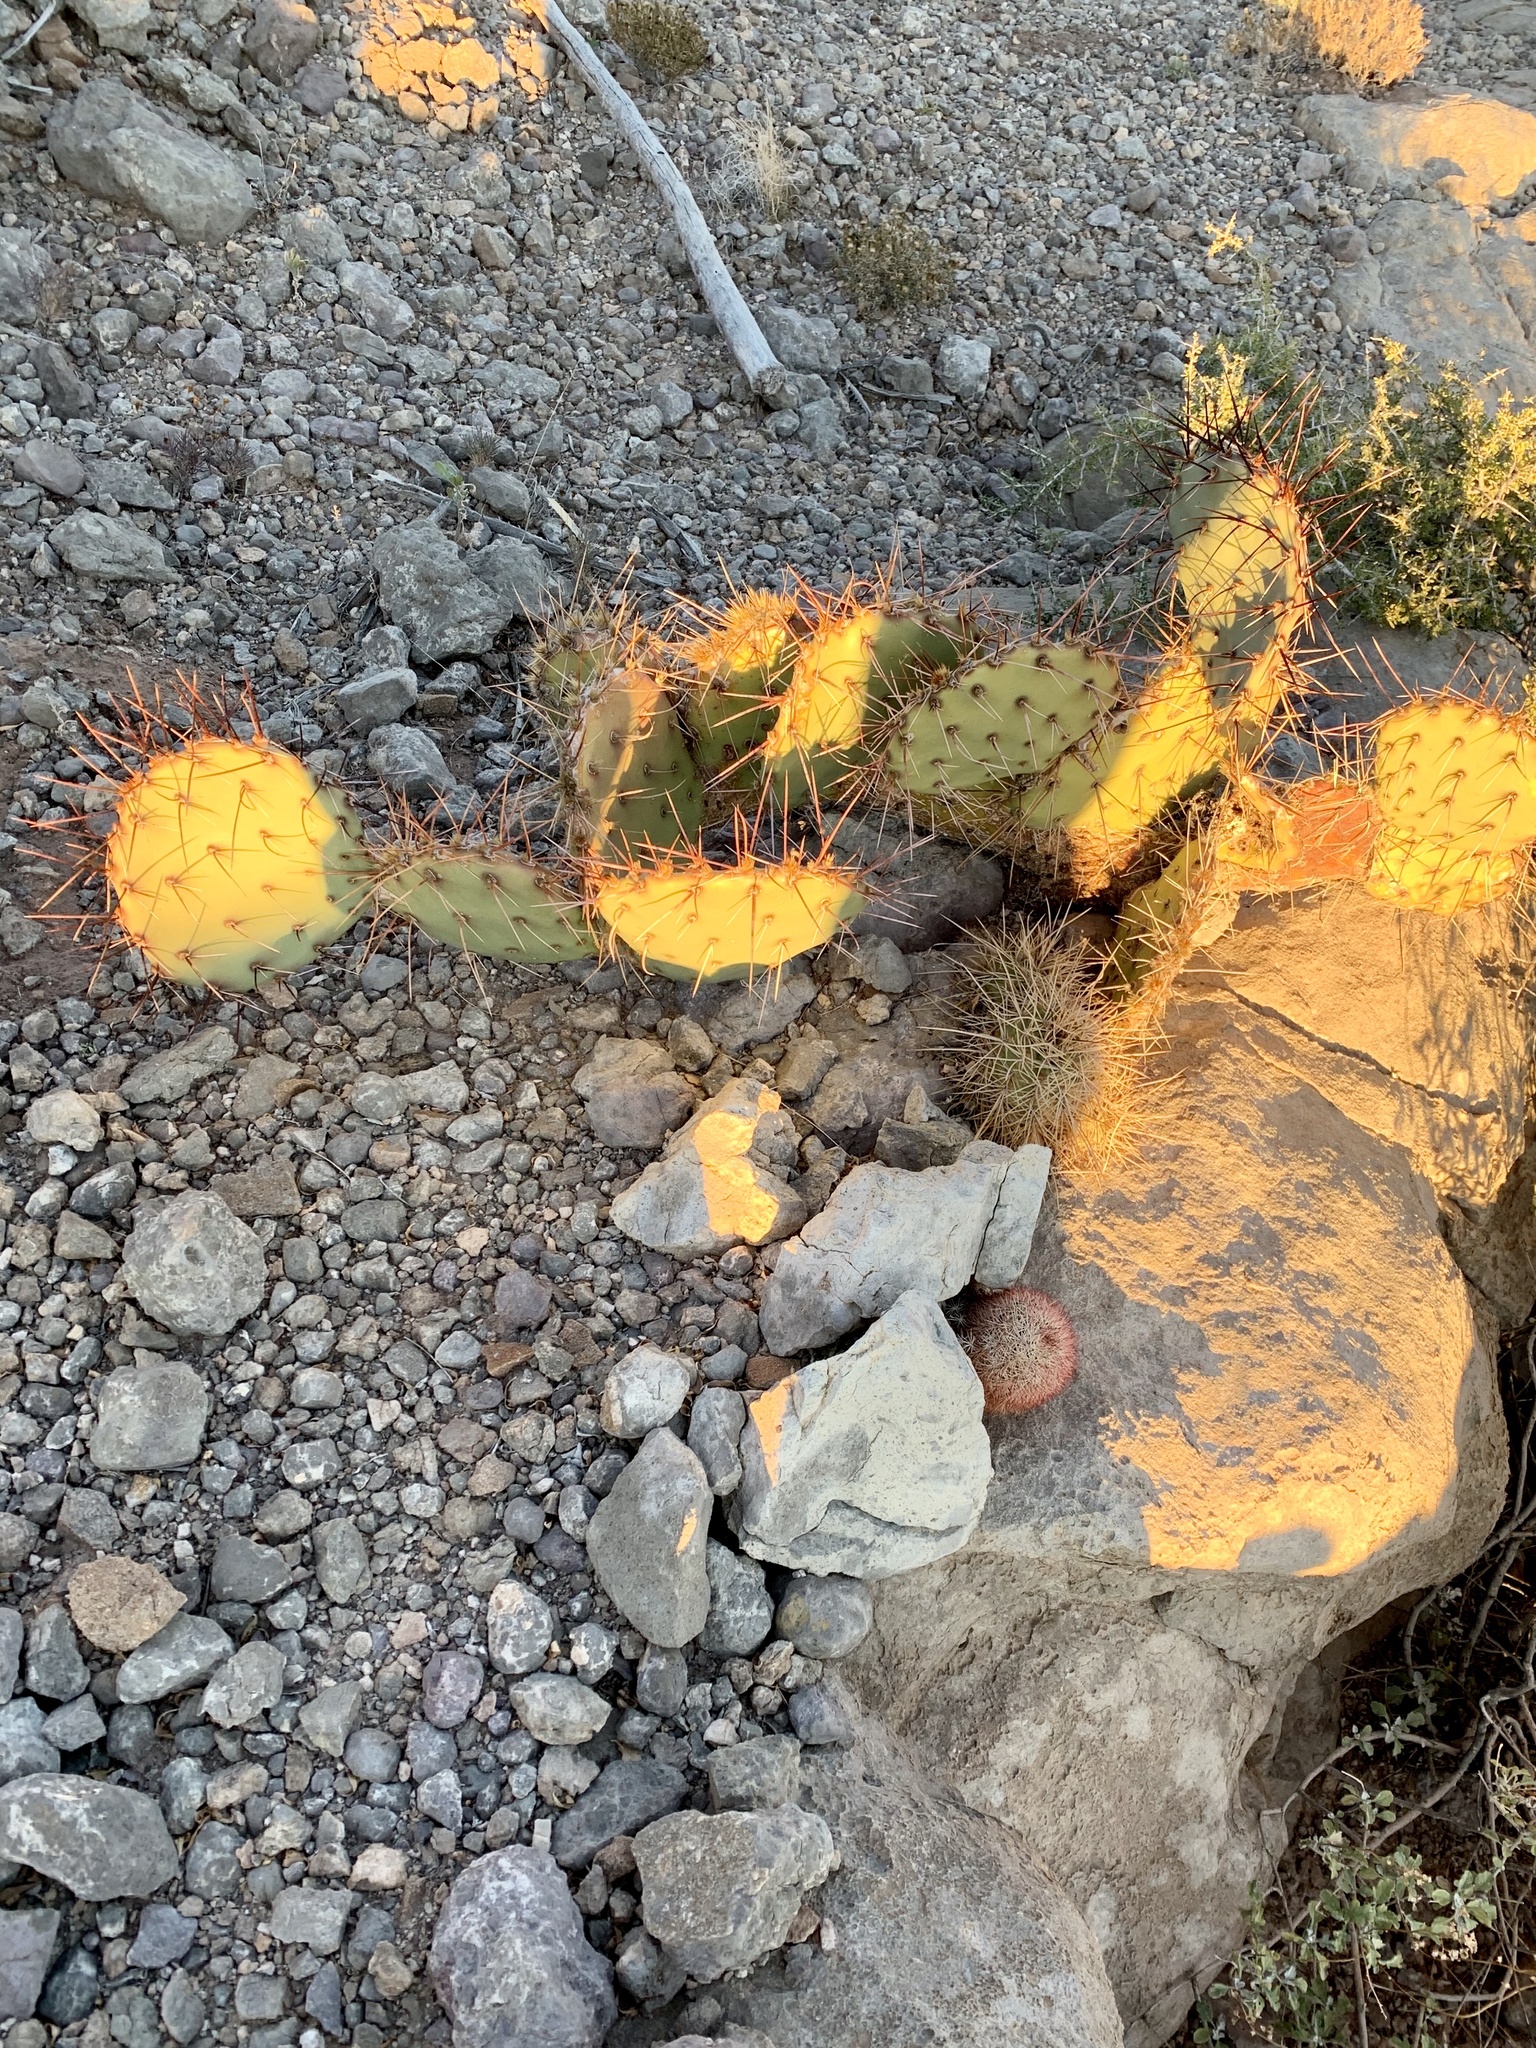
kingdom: Plantae
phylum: Tracheophyta
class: Magnoliopsida
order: Caryophyllales
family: Cactaceae
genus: Echinocereus
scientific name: Echinocereus coccineus
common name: Scarlet hedgehog cactus
